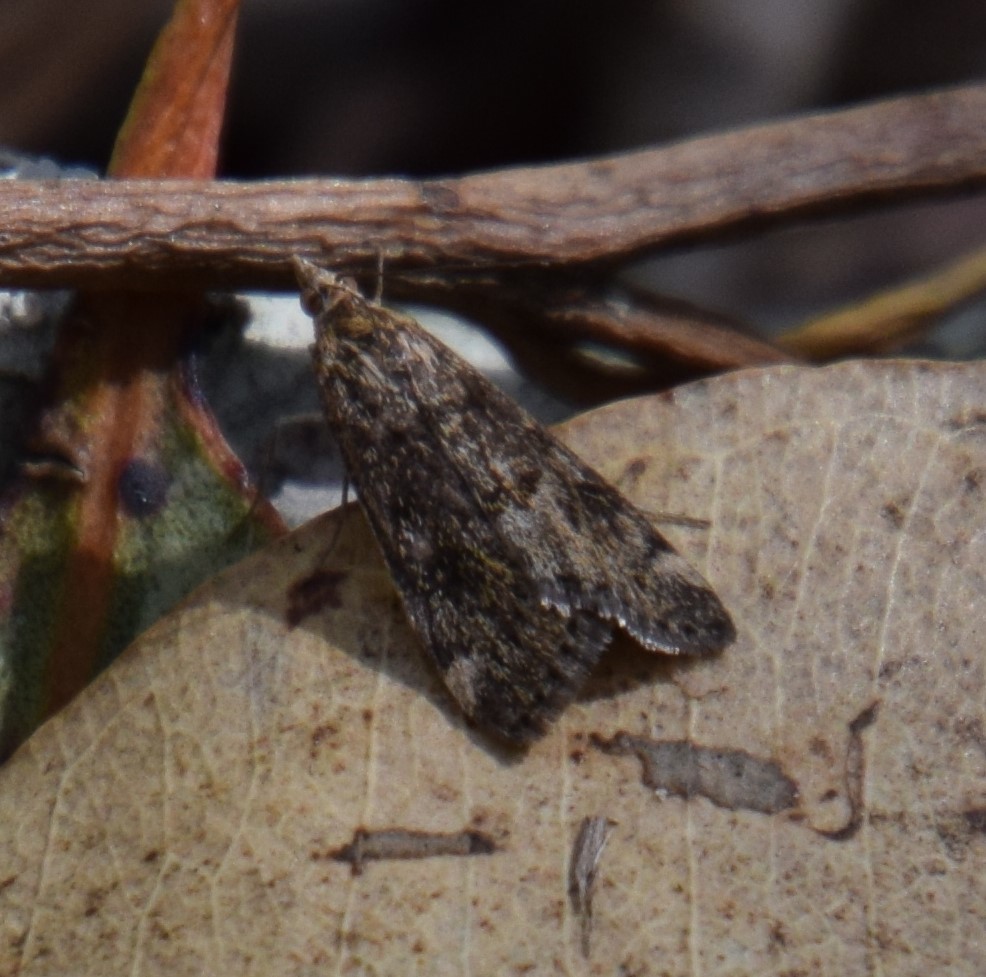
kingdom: Animalia
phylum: Arthropoda
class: Insecta
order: Lepidoptera
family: Crambidae
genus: Achyra
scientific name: Achyra affinitalis
